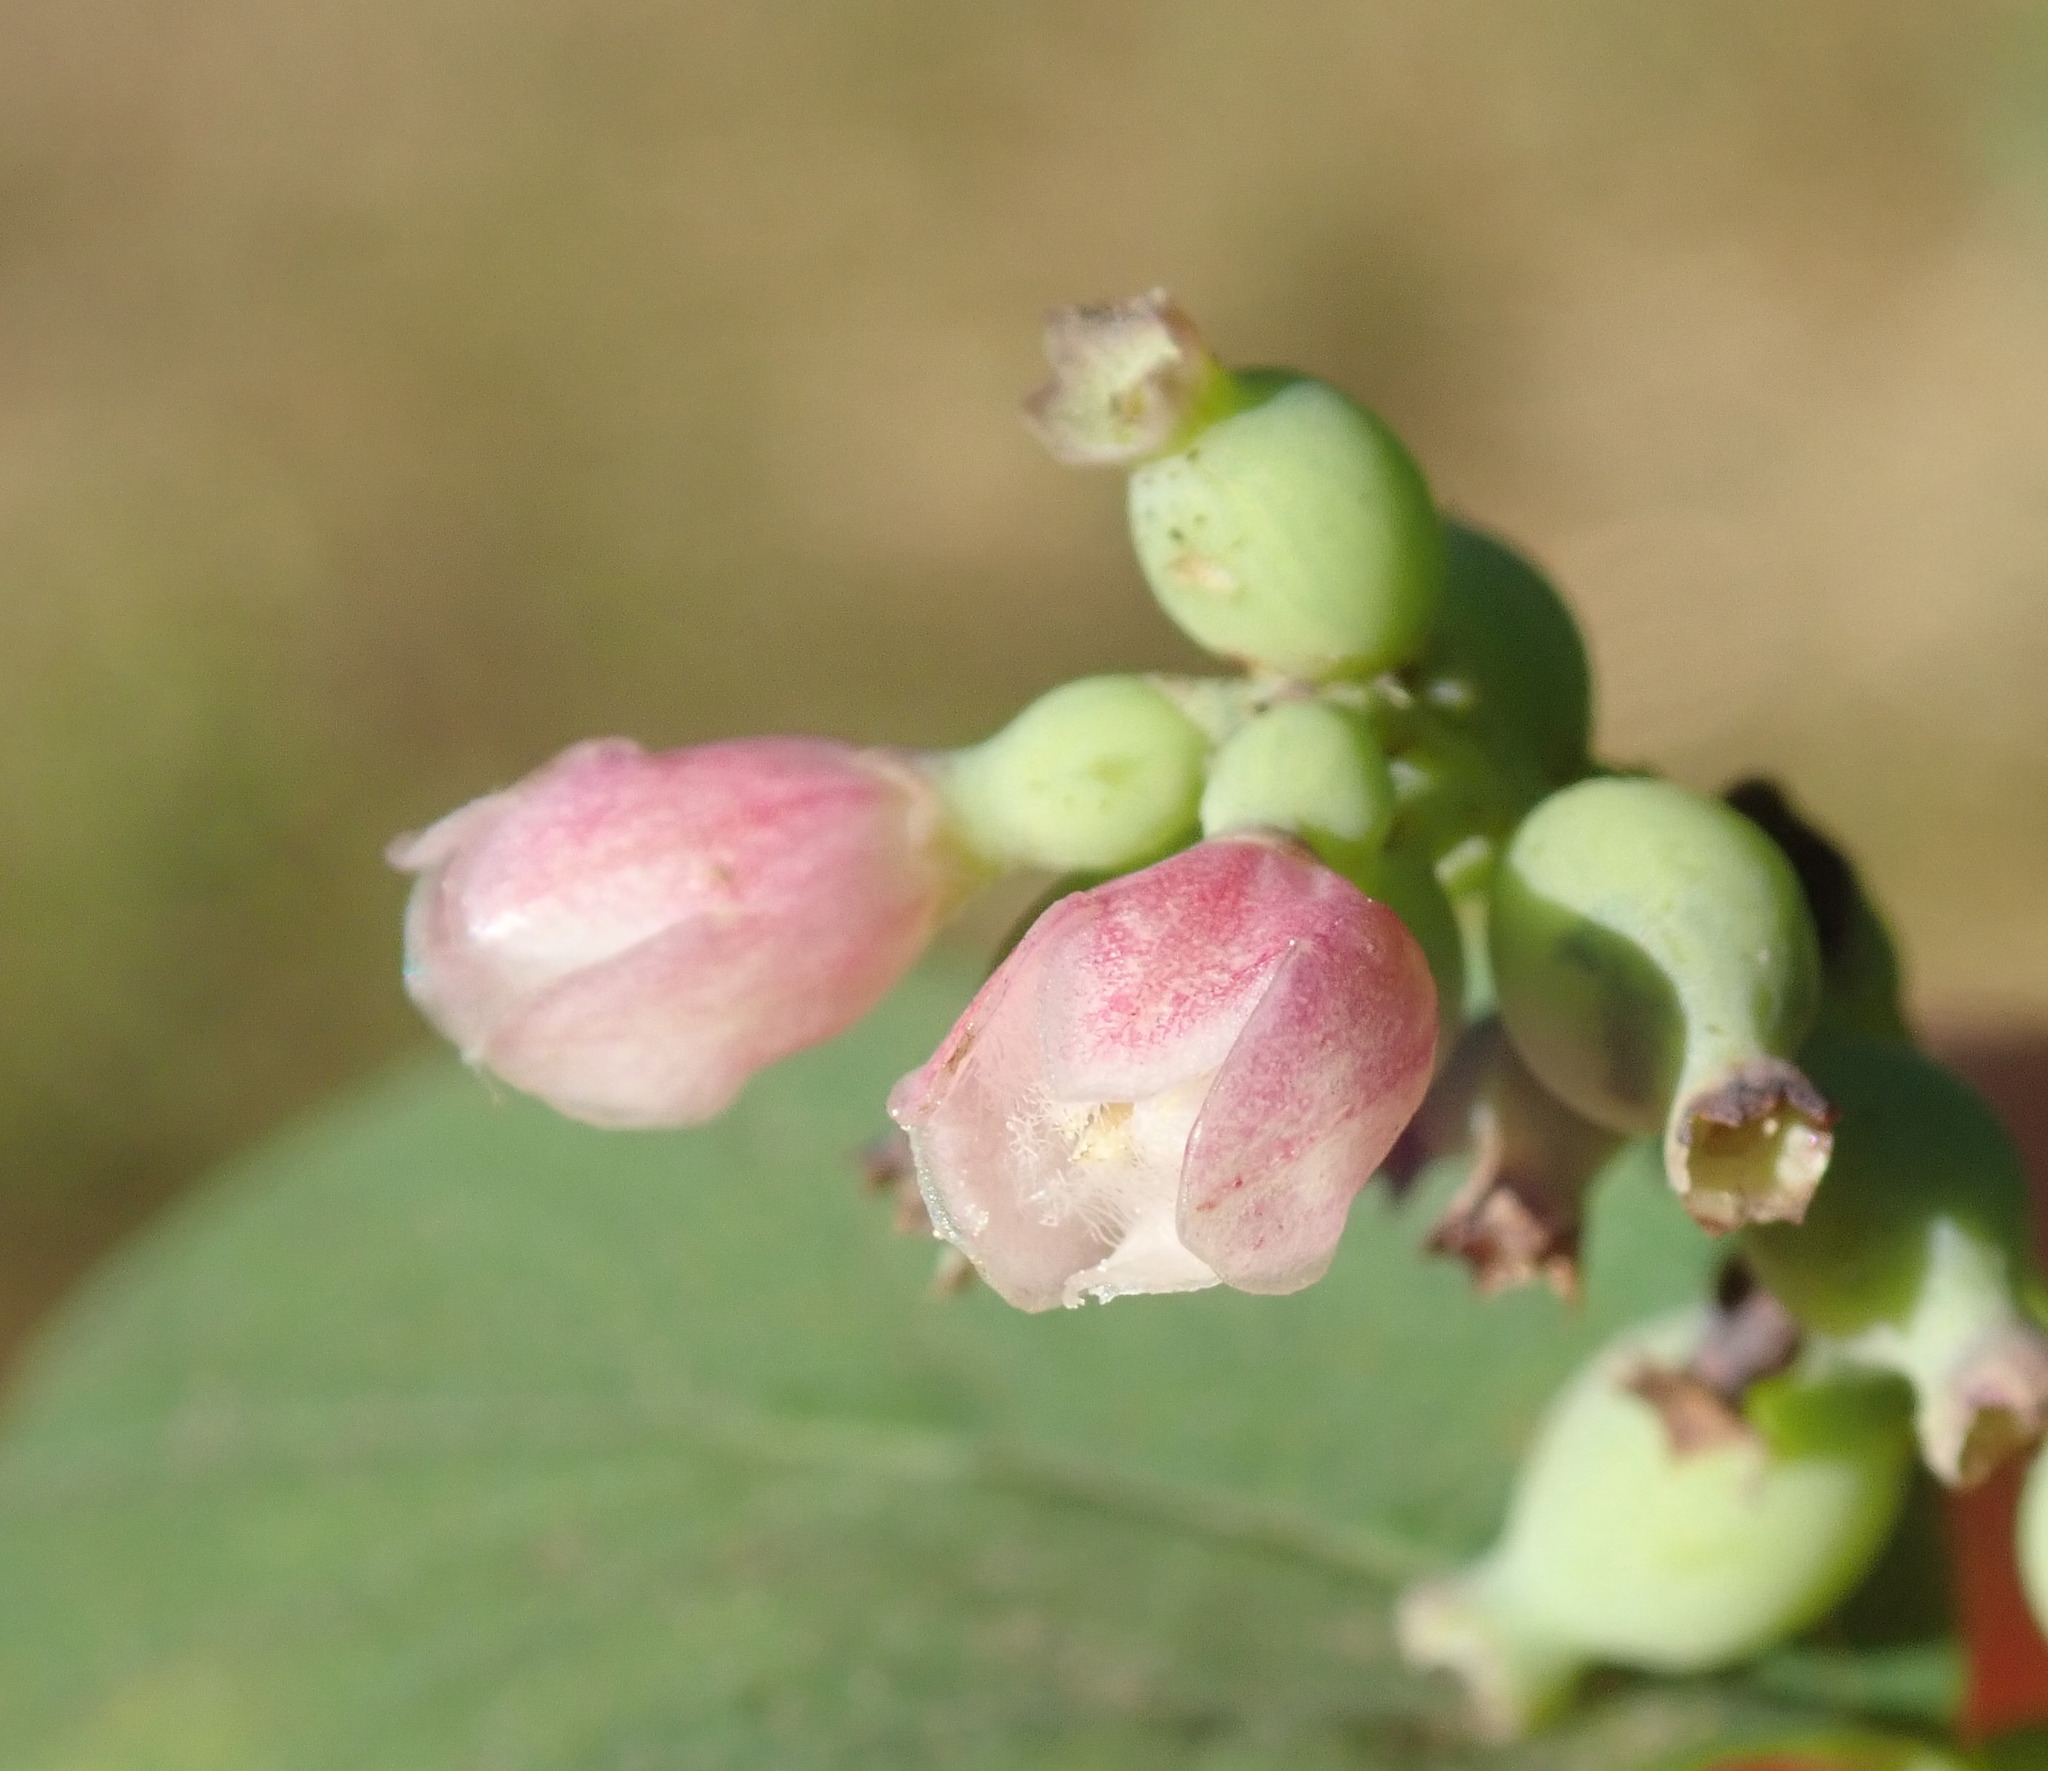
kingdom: Plantae
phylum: Tracheophyta
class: Magnoliopsida
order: Dipsacales
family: Caprifoliaceae
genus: Symphoricarpos
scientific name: Symphoricarpos albus
